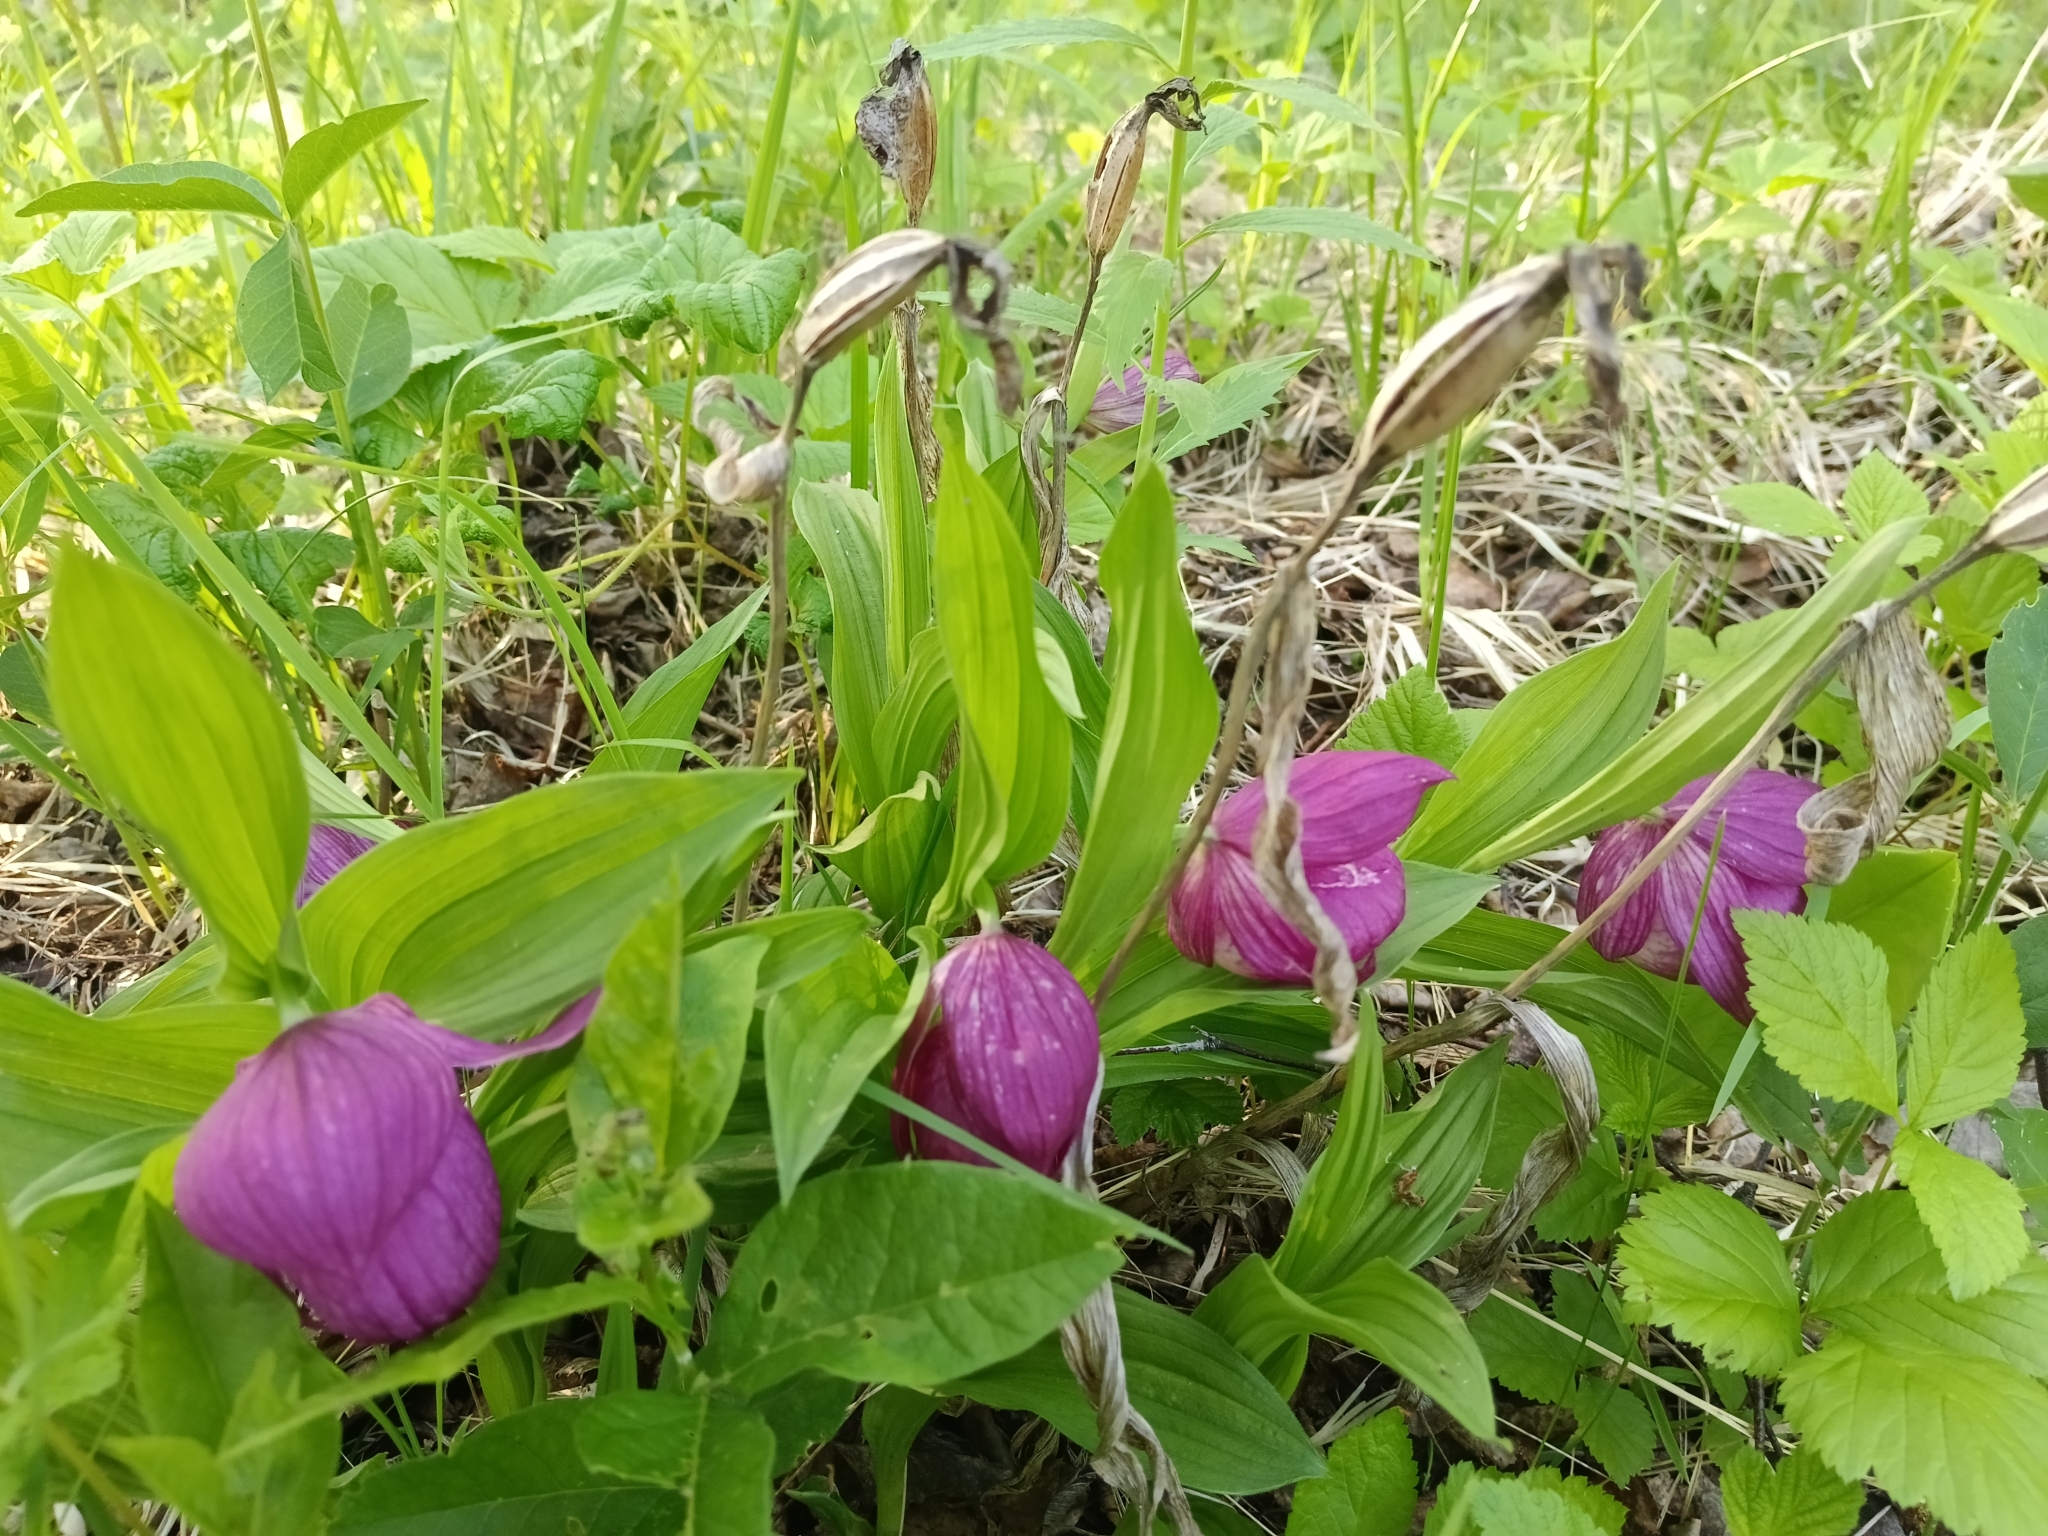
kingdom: Plantae
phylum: Tracheophyta
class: Liliopsida
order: Asparagales
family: Orchidaceae
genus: Cypripedium
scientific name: Cypripedium macranthos
